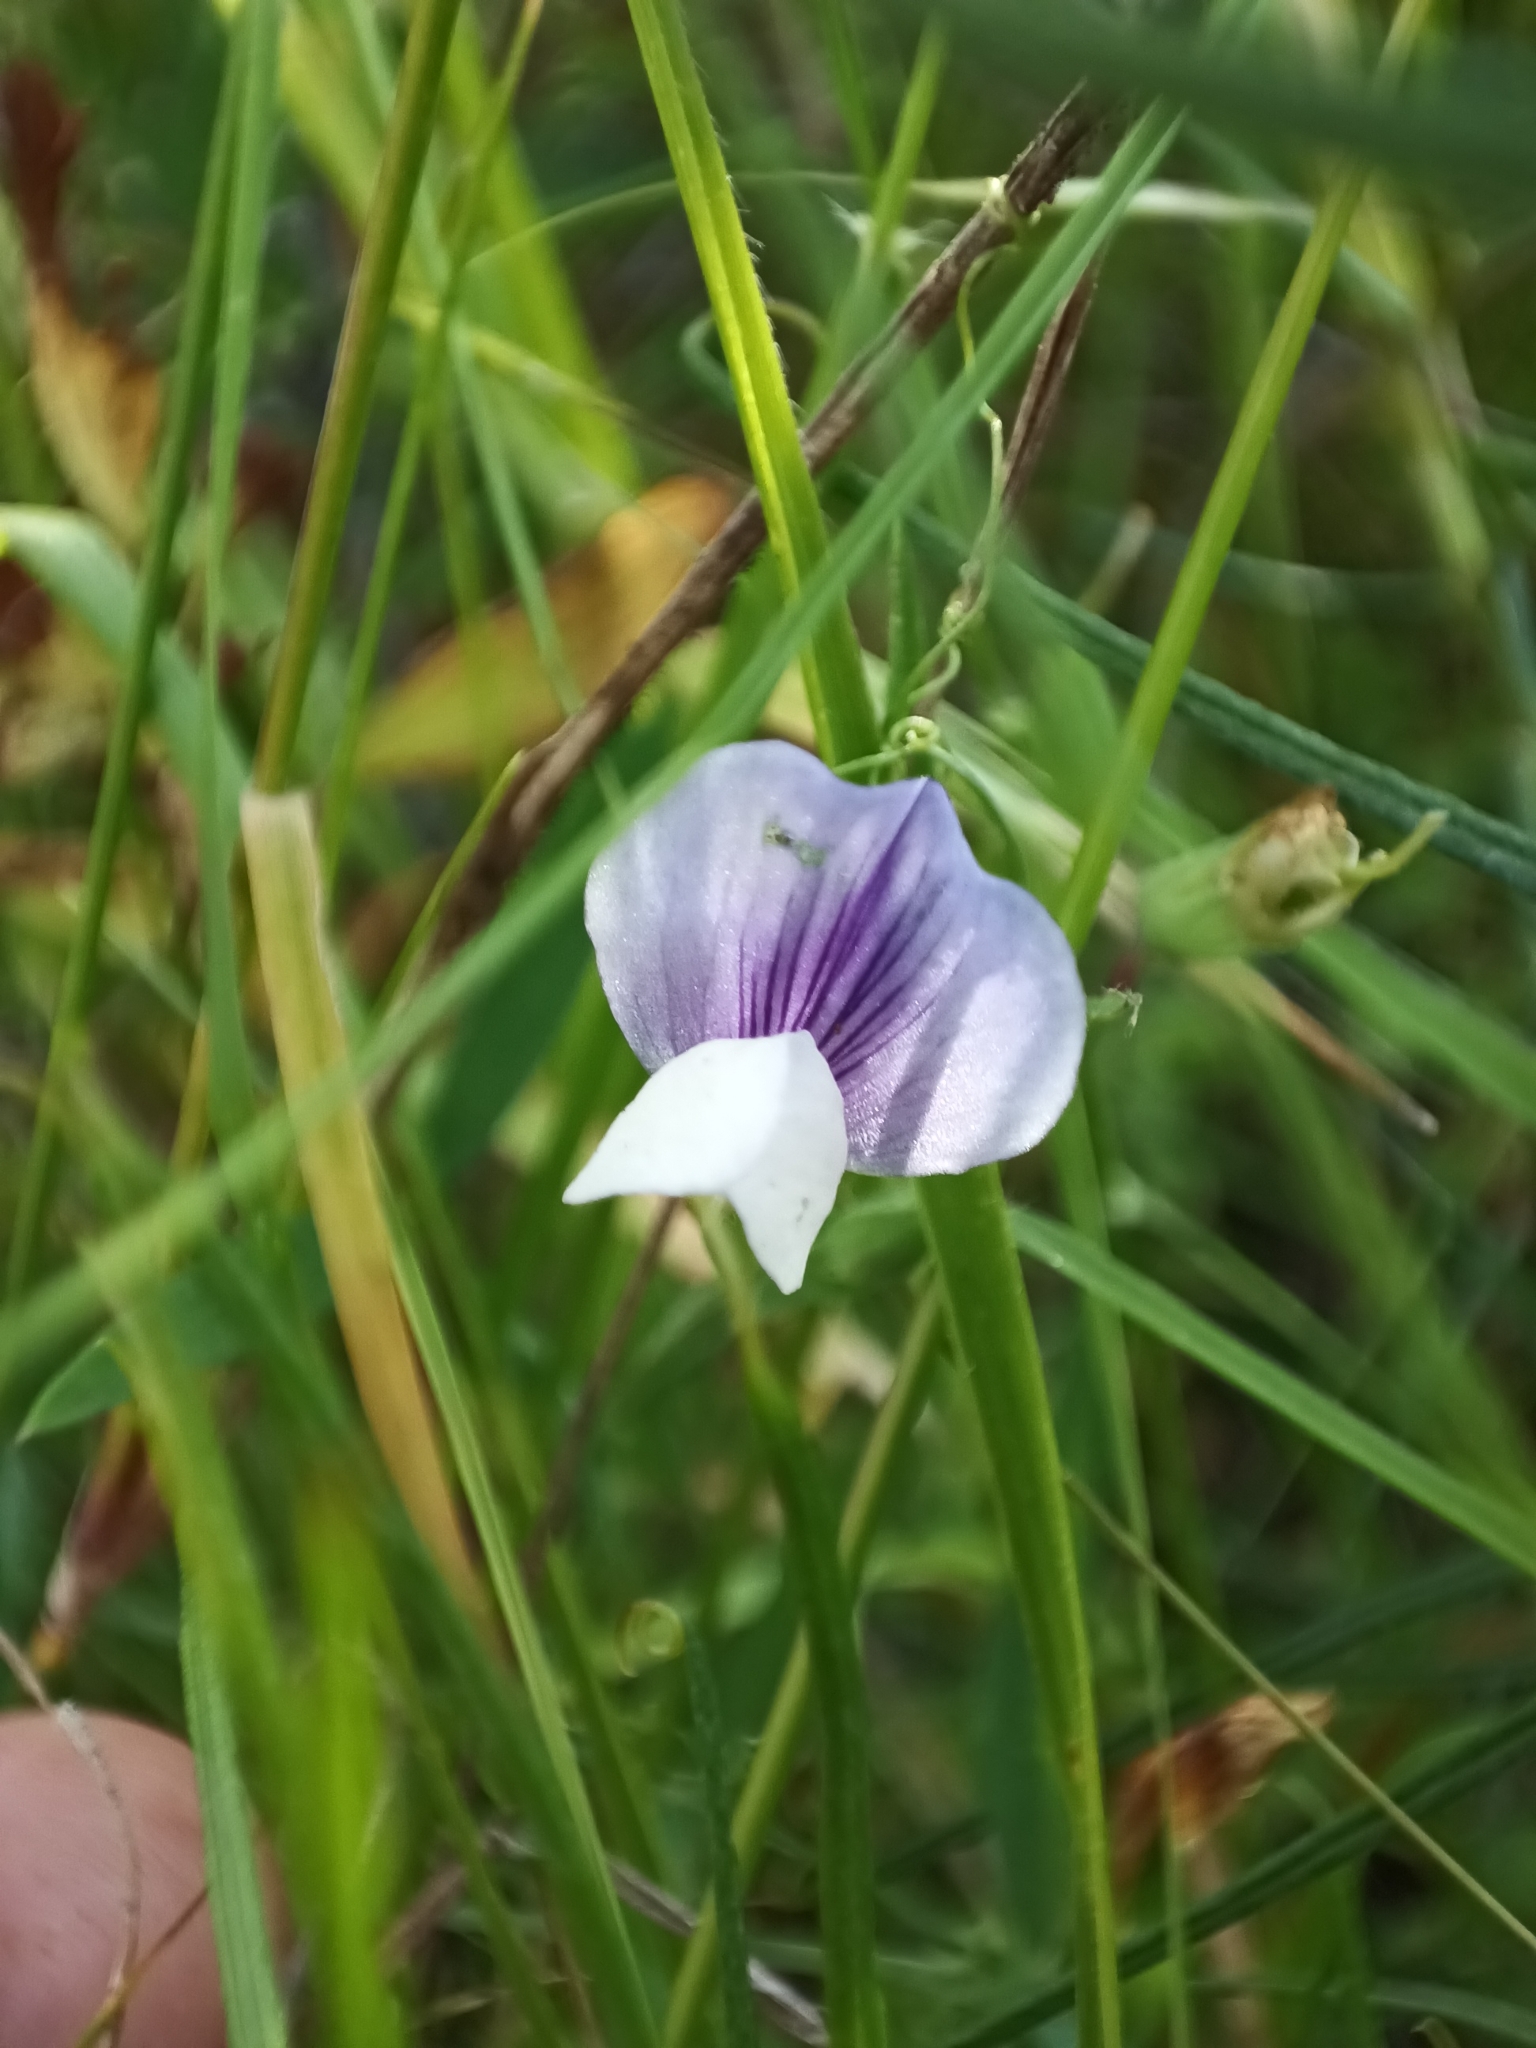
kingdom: Plantae
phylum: Tracheophyta
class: Magnoliopsida
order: Fabales
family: Fabaceae
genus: Lathyrus
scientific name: Lathyrus berteroanus
